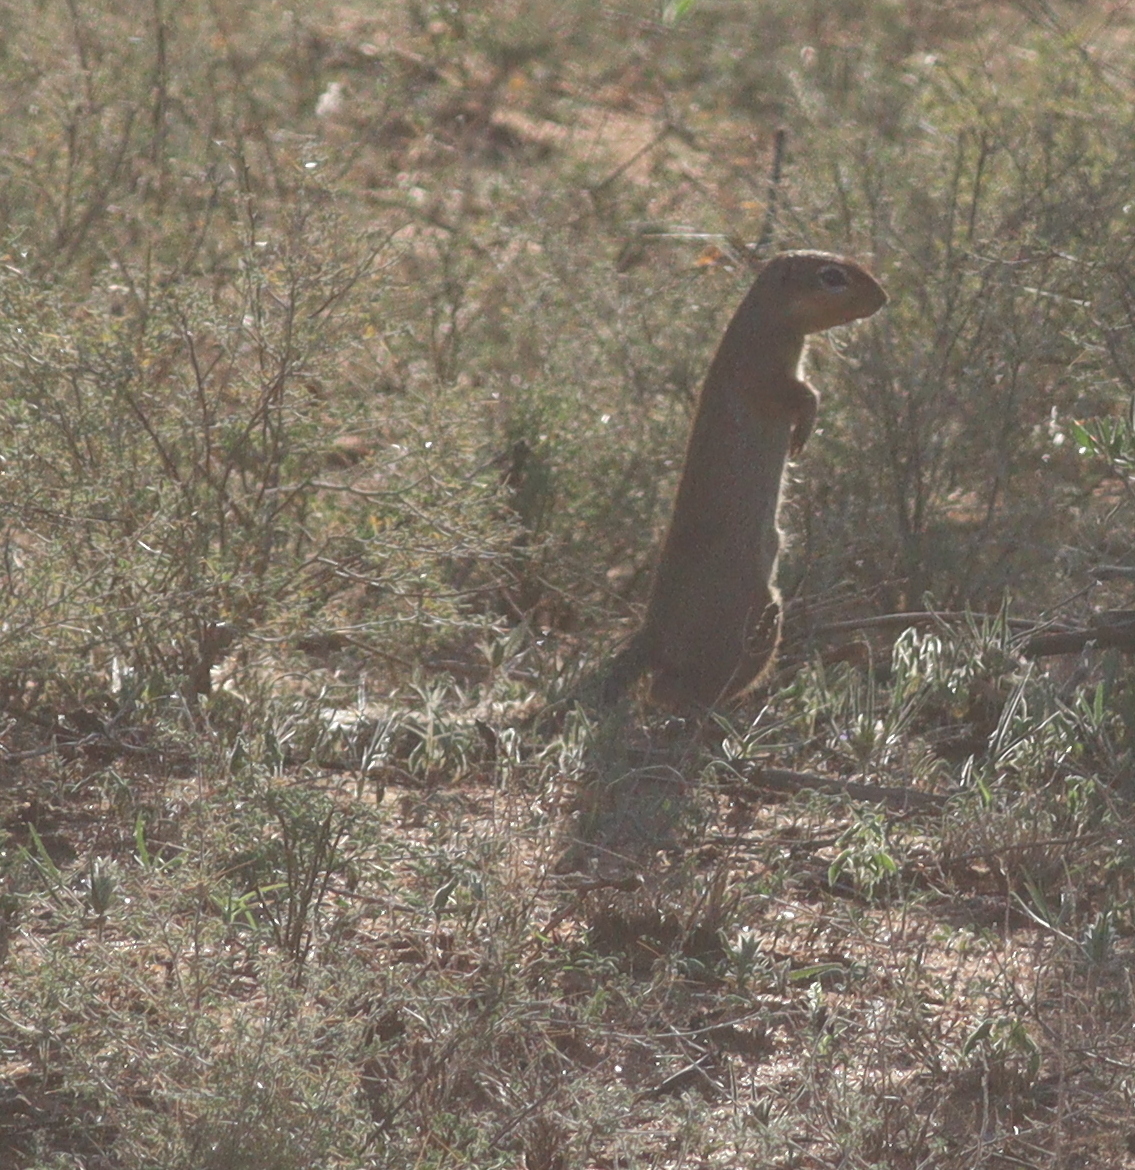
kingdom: Animalia
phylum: Chordata
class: Mammalia
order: Rodentia
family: Sciuridae
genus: Xerus
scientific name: Xerus rutilus
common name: Unstriped ground squirrel
